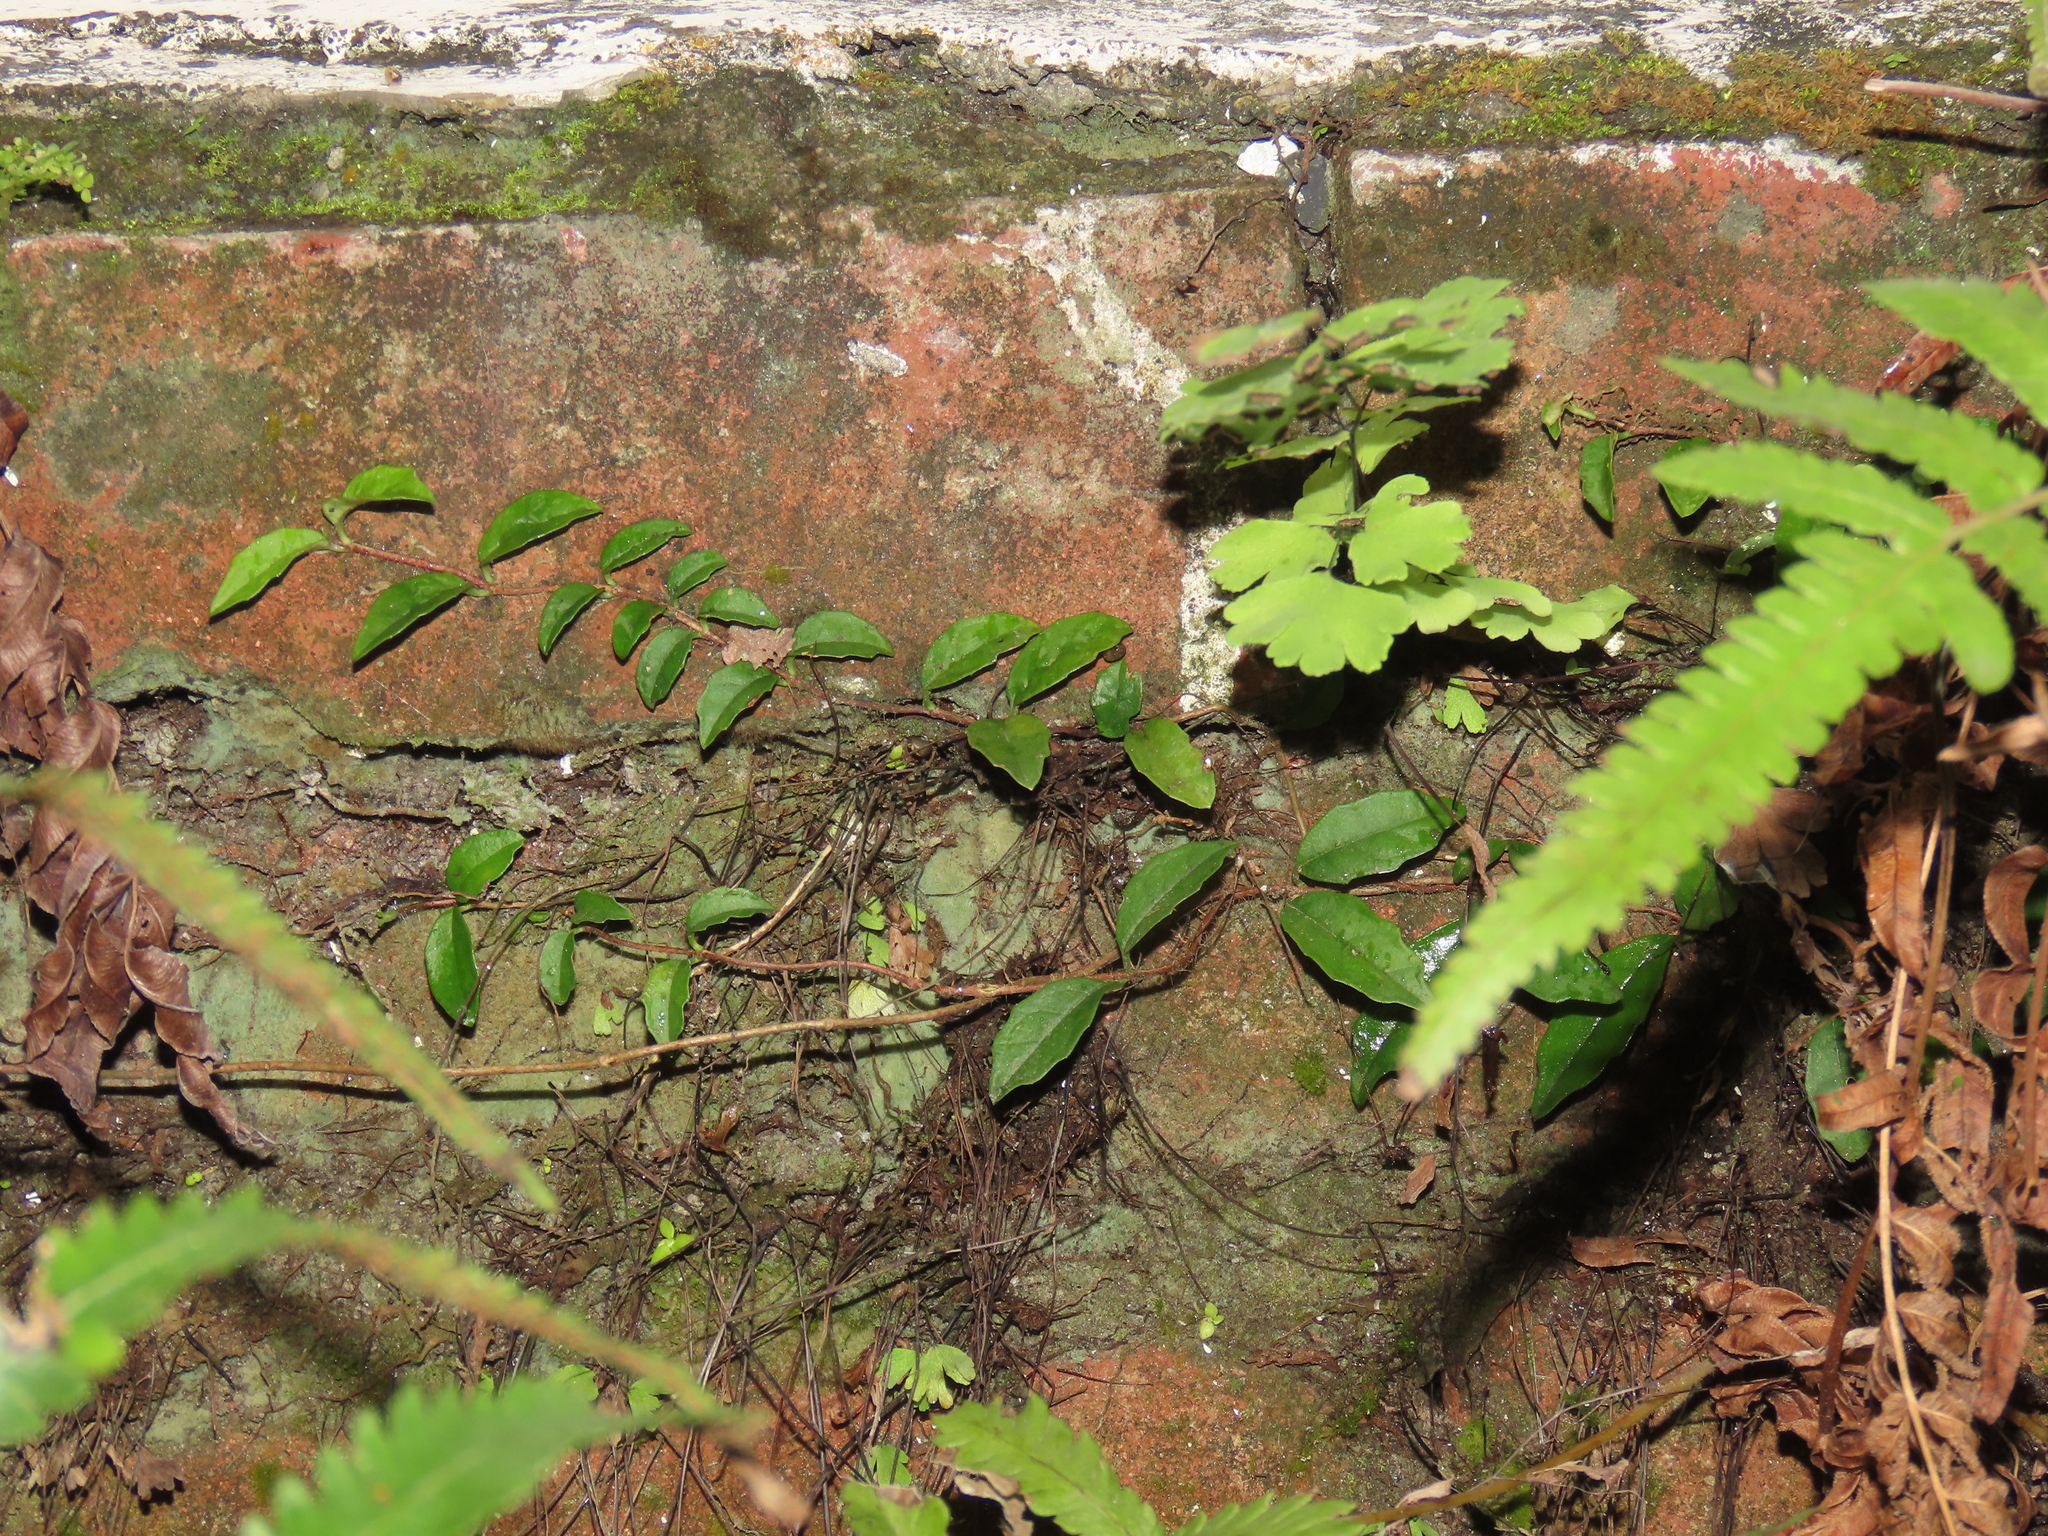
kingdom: Plantae
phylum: Tracheophyta
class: Magnoliopsida
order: Cornales
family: Hydrangeaceae
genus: Hydrangea
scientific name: Hydrangea viburnoides
